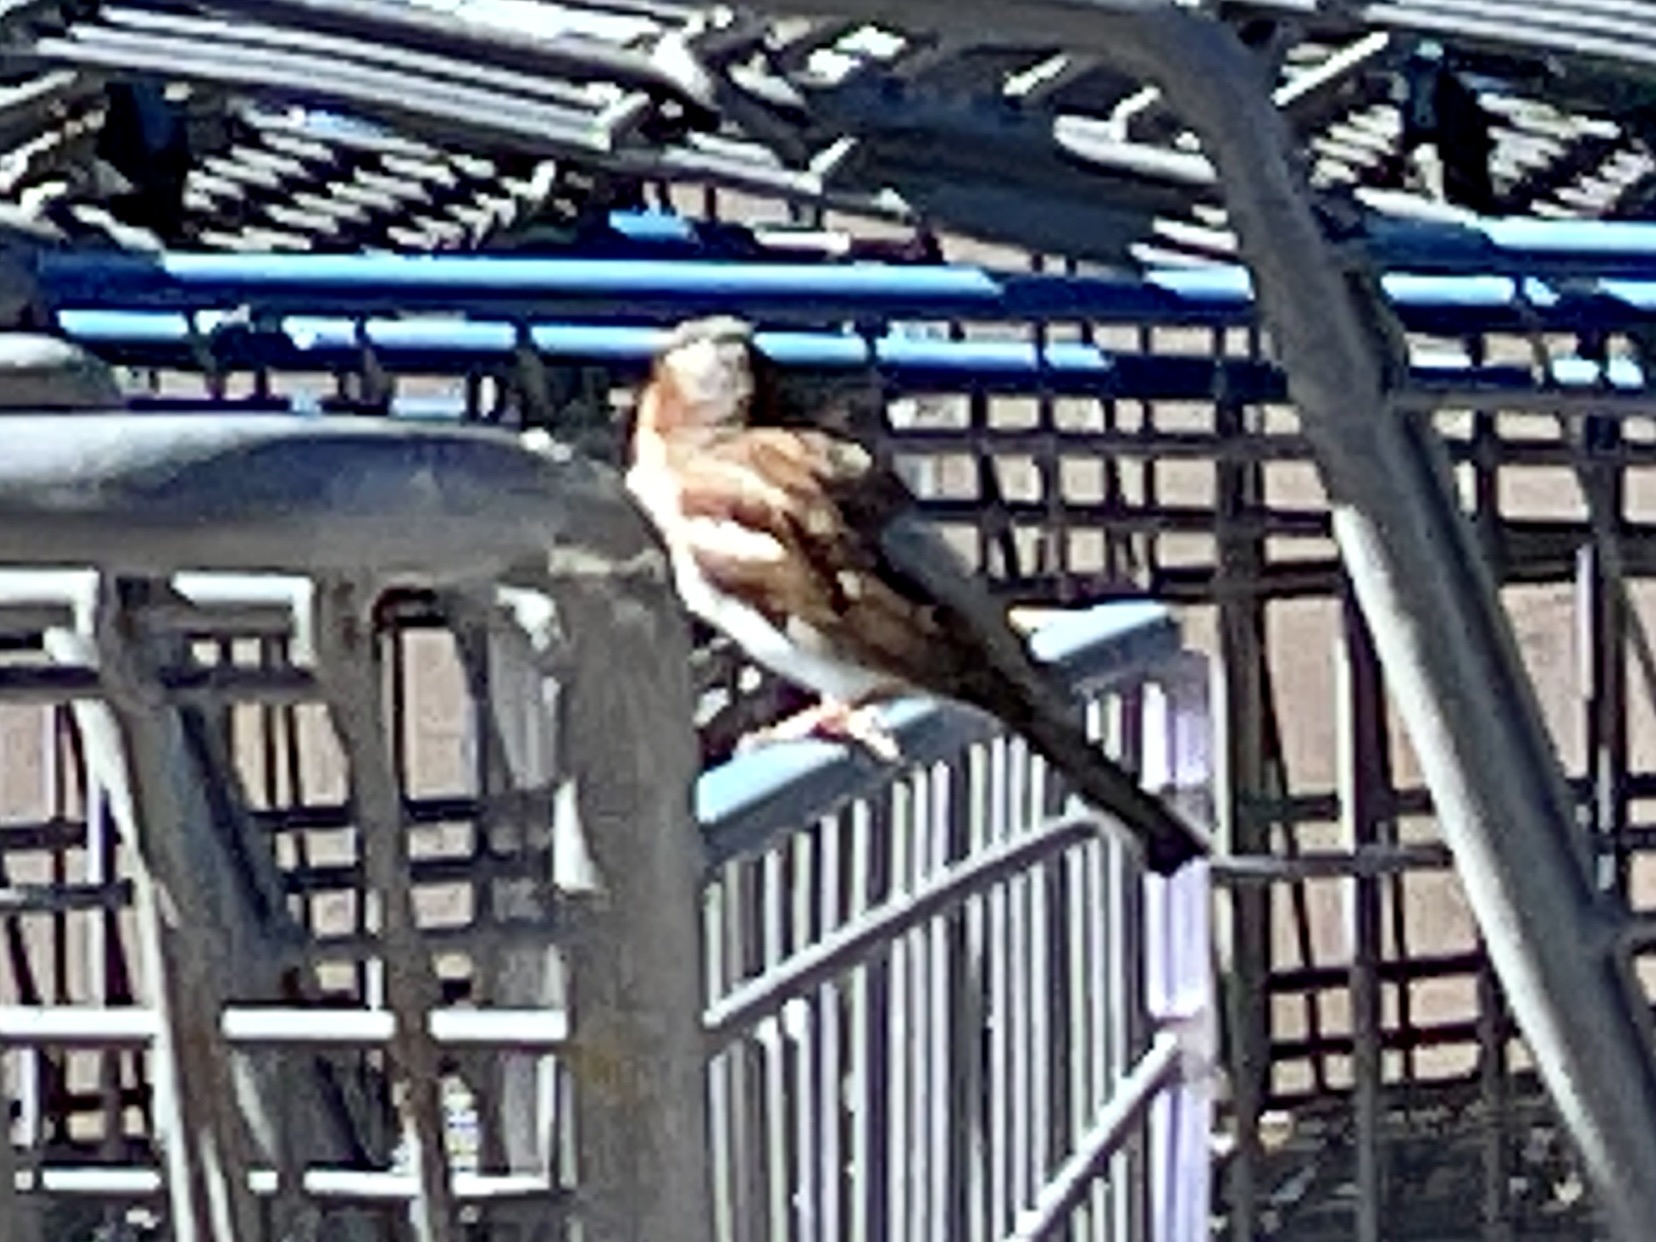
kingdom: Animalia
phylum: Chordata
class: Aves
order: Passeriformes
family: Passeridae
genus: Passer
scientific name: Passer domesticus
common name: House sparrow
